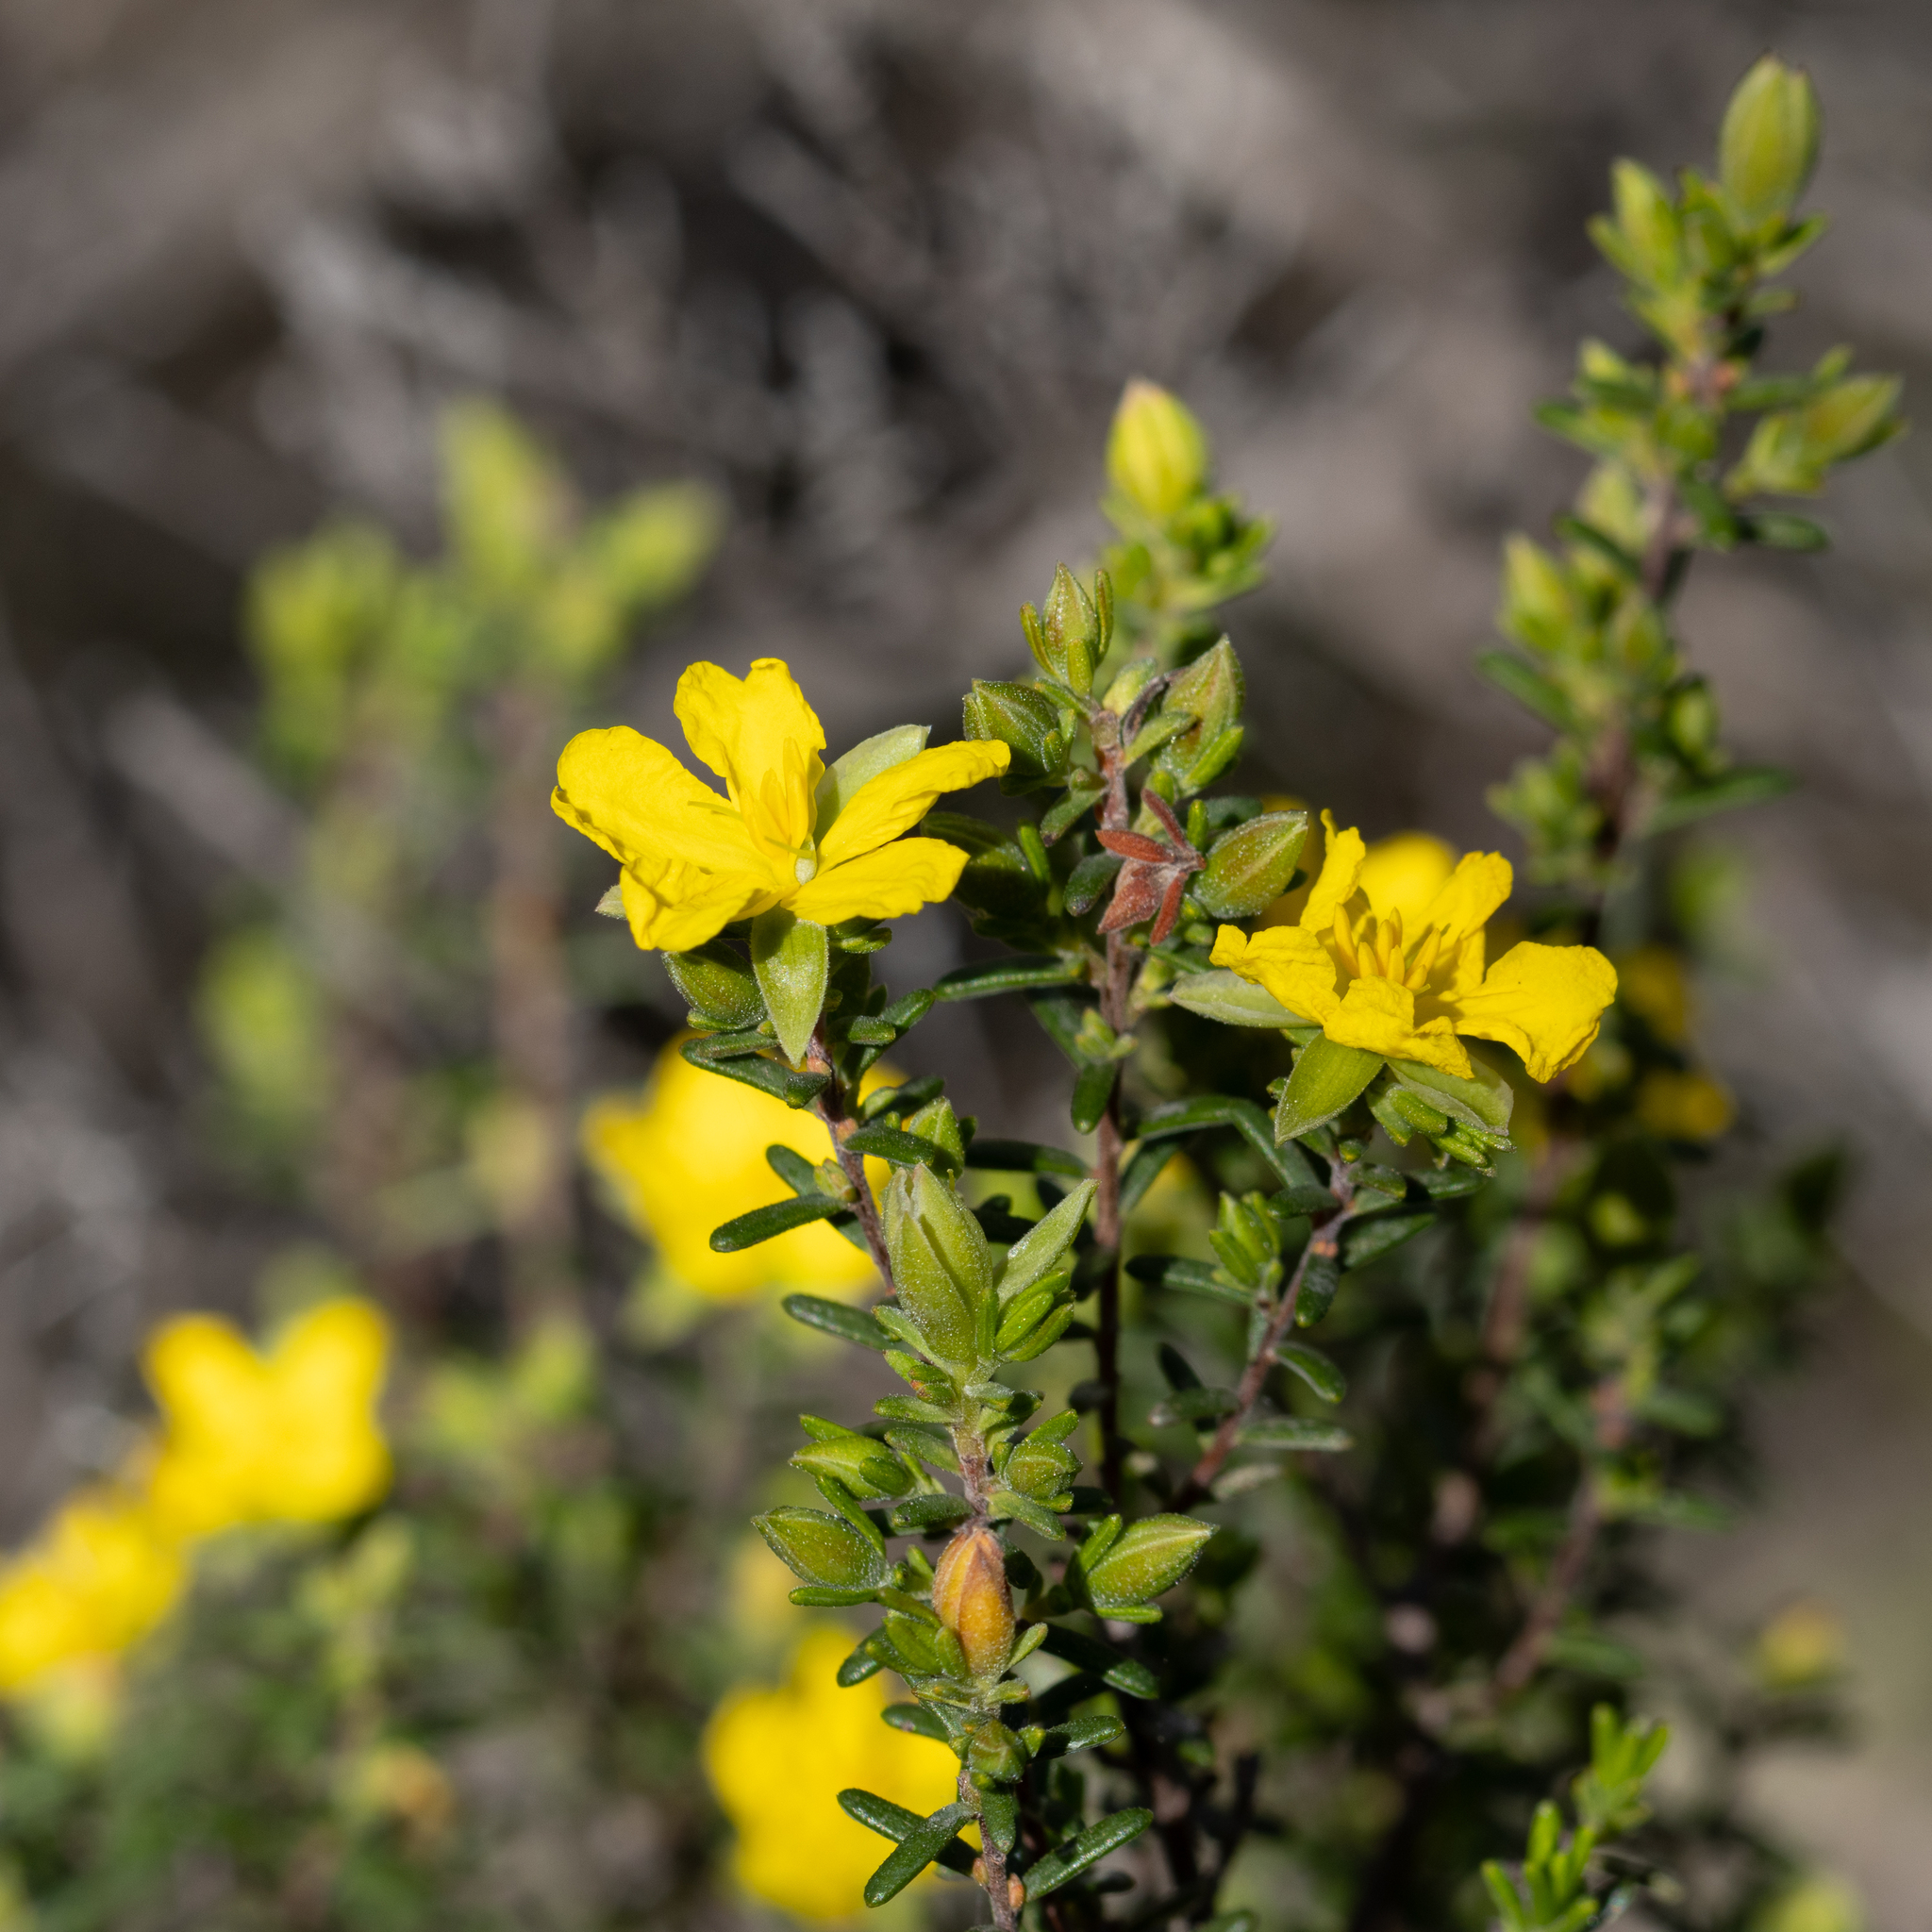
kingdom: Plantae
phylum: Tracheophyta
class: Magnoliopsida
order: Dilleniales
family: Dilleniaceae
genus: Hibbertia
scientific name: Hibbertia devitata
